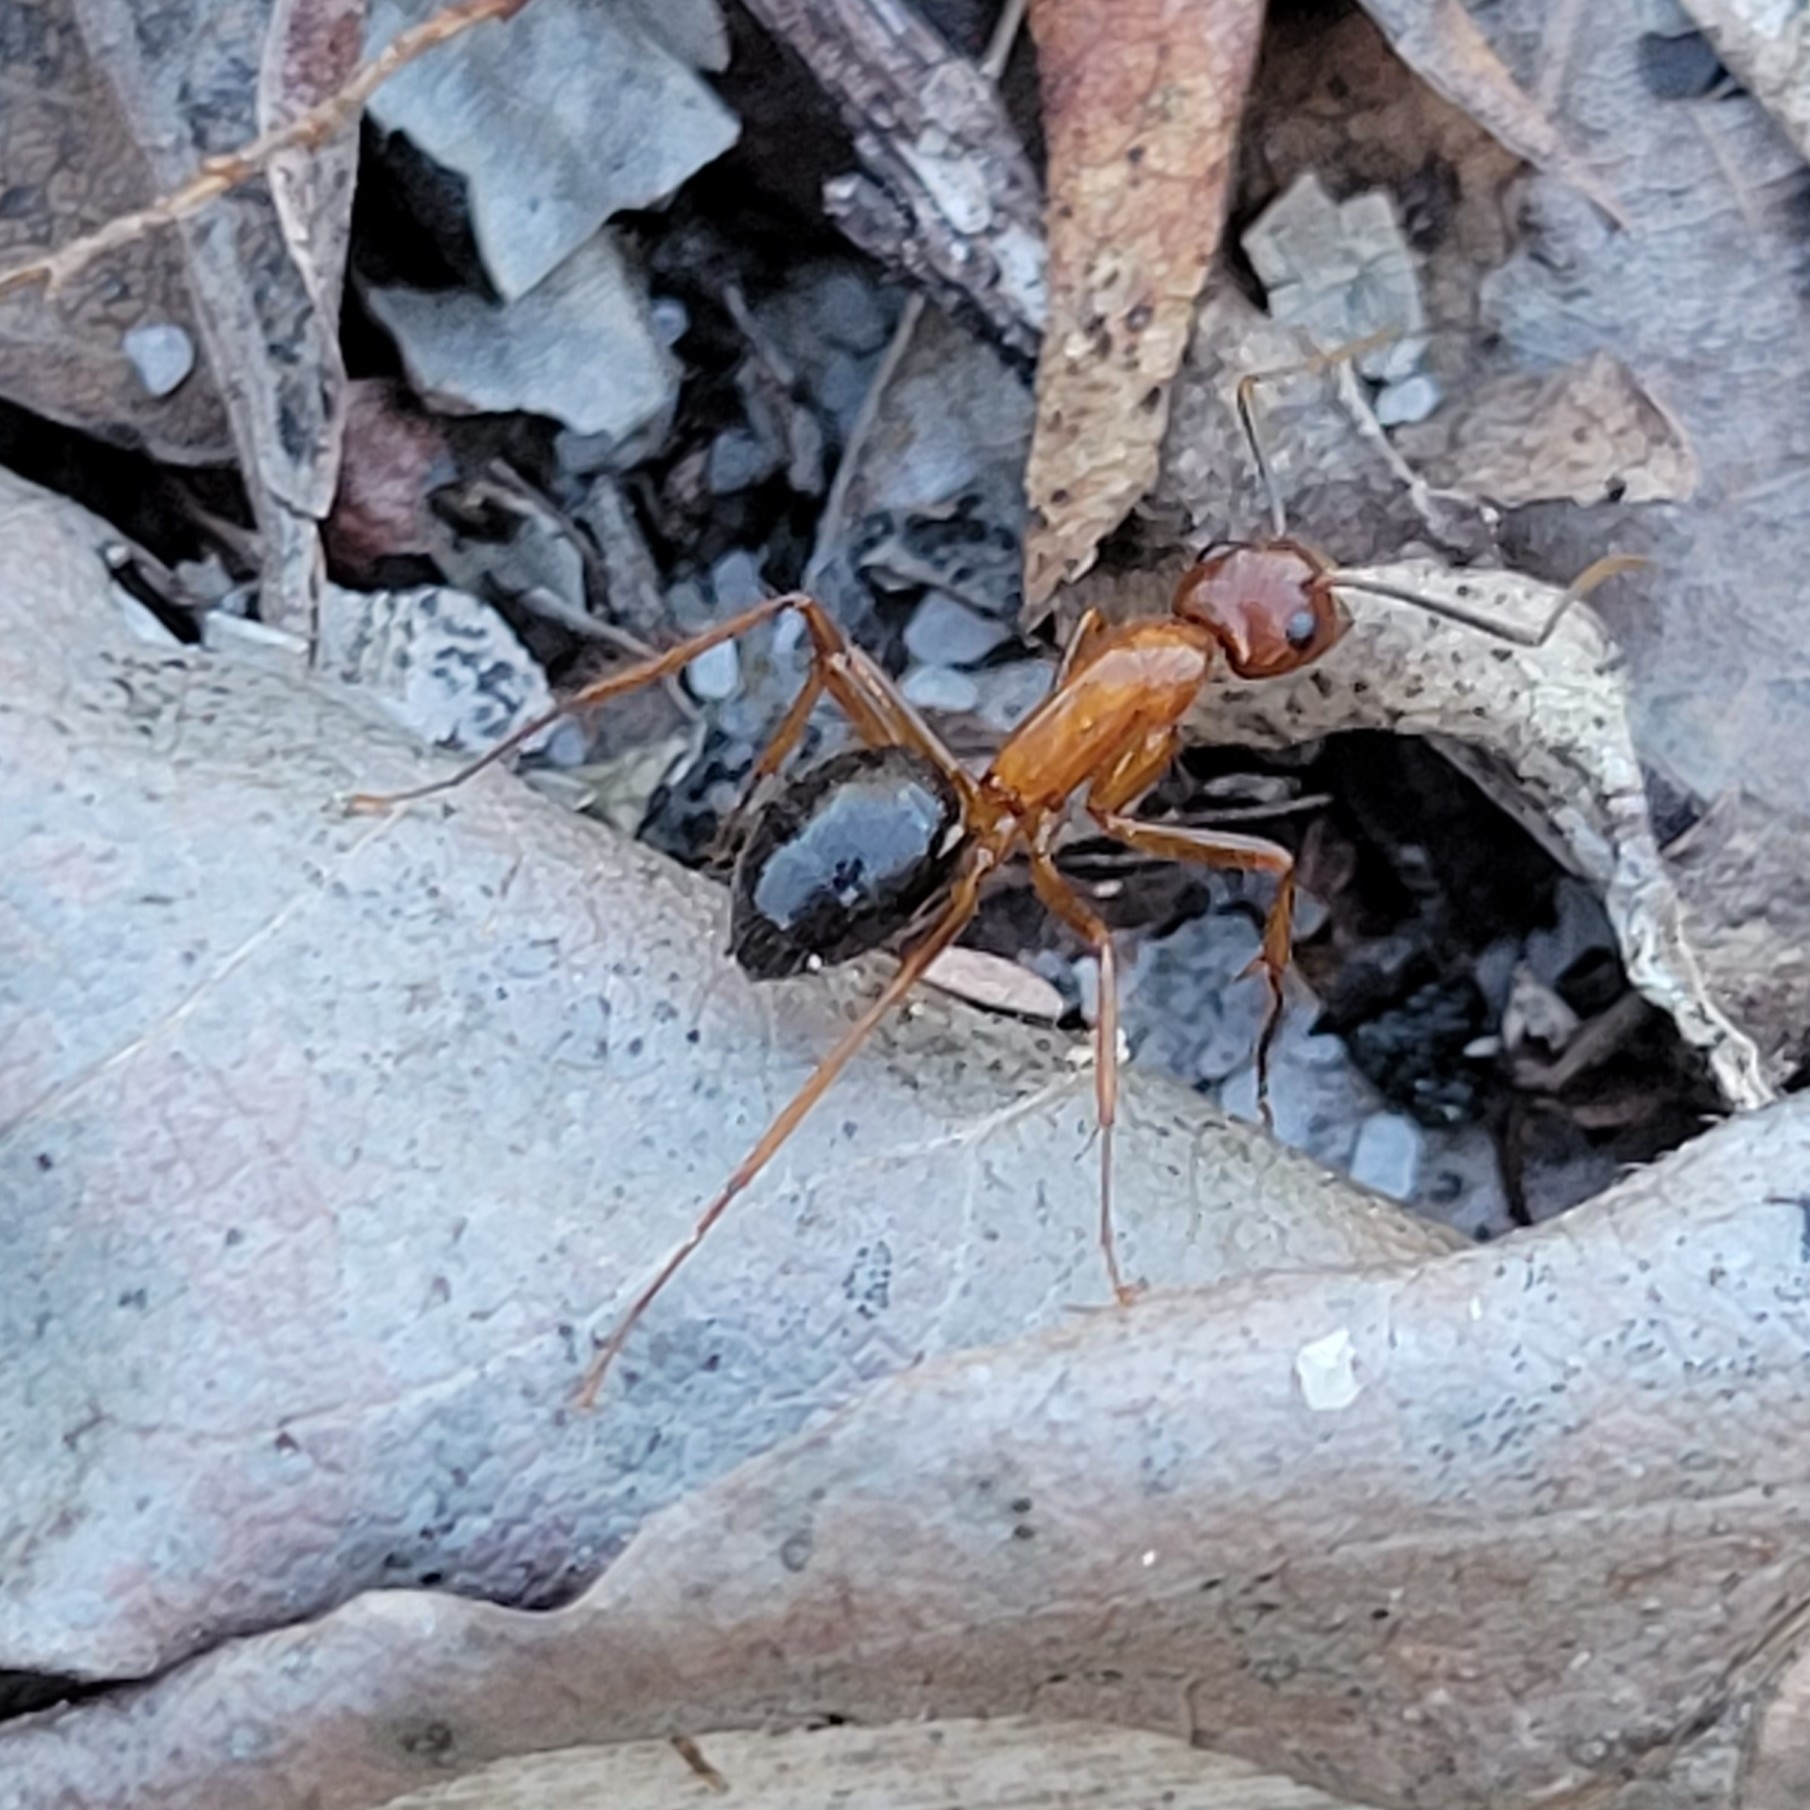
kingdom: Animalia
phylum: Arthropoda
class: Insecta
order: Hymenoptera
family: Formicidae
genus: Camponotus
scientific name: Camponotus floridanus
